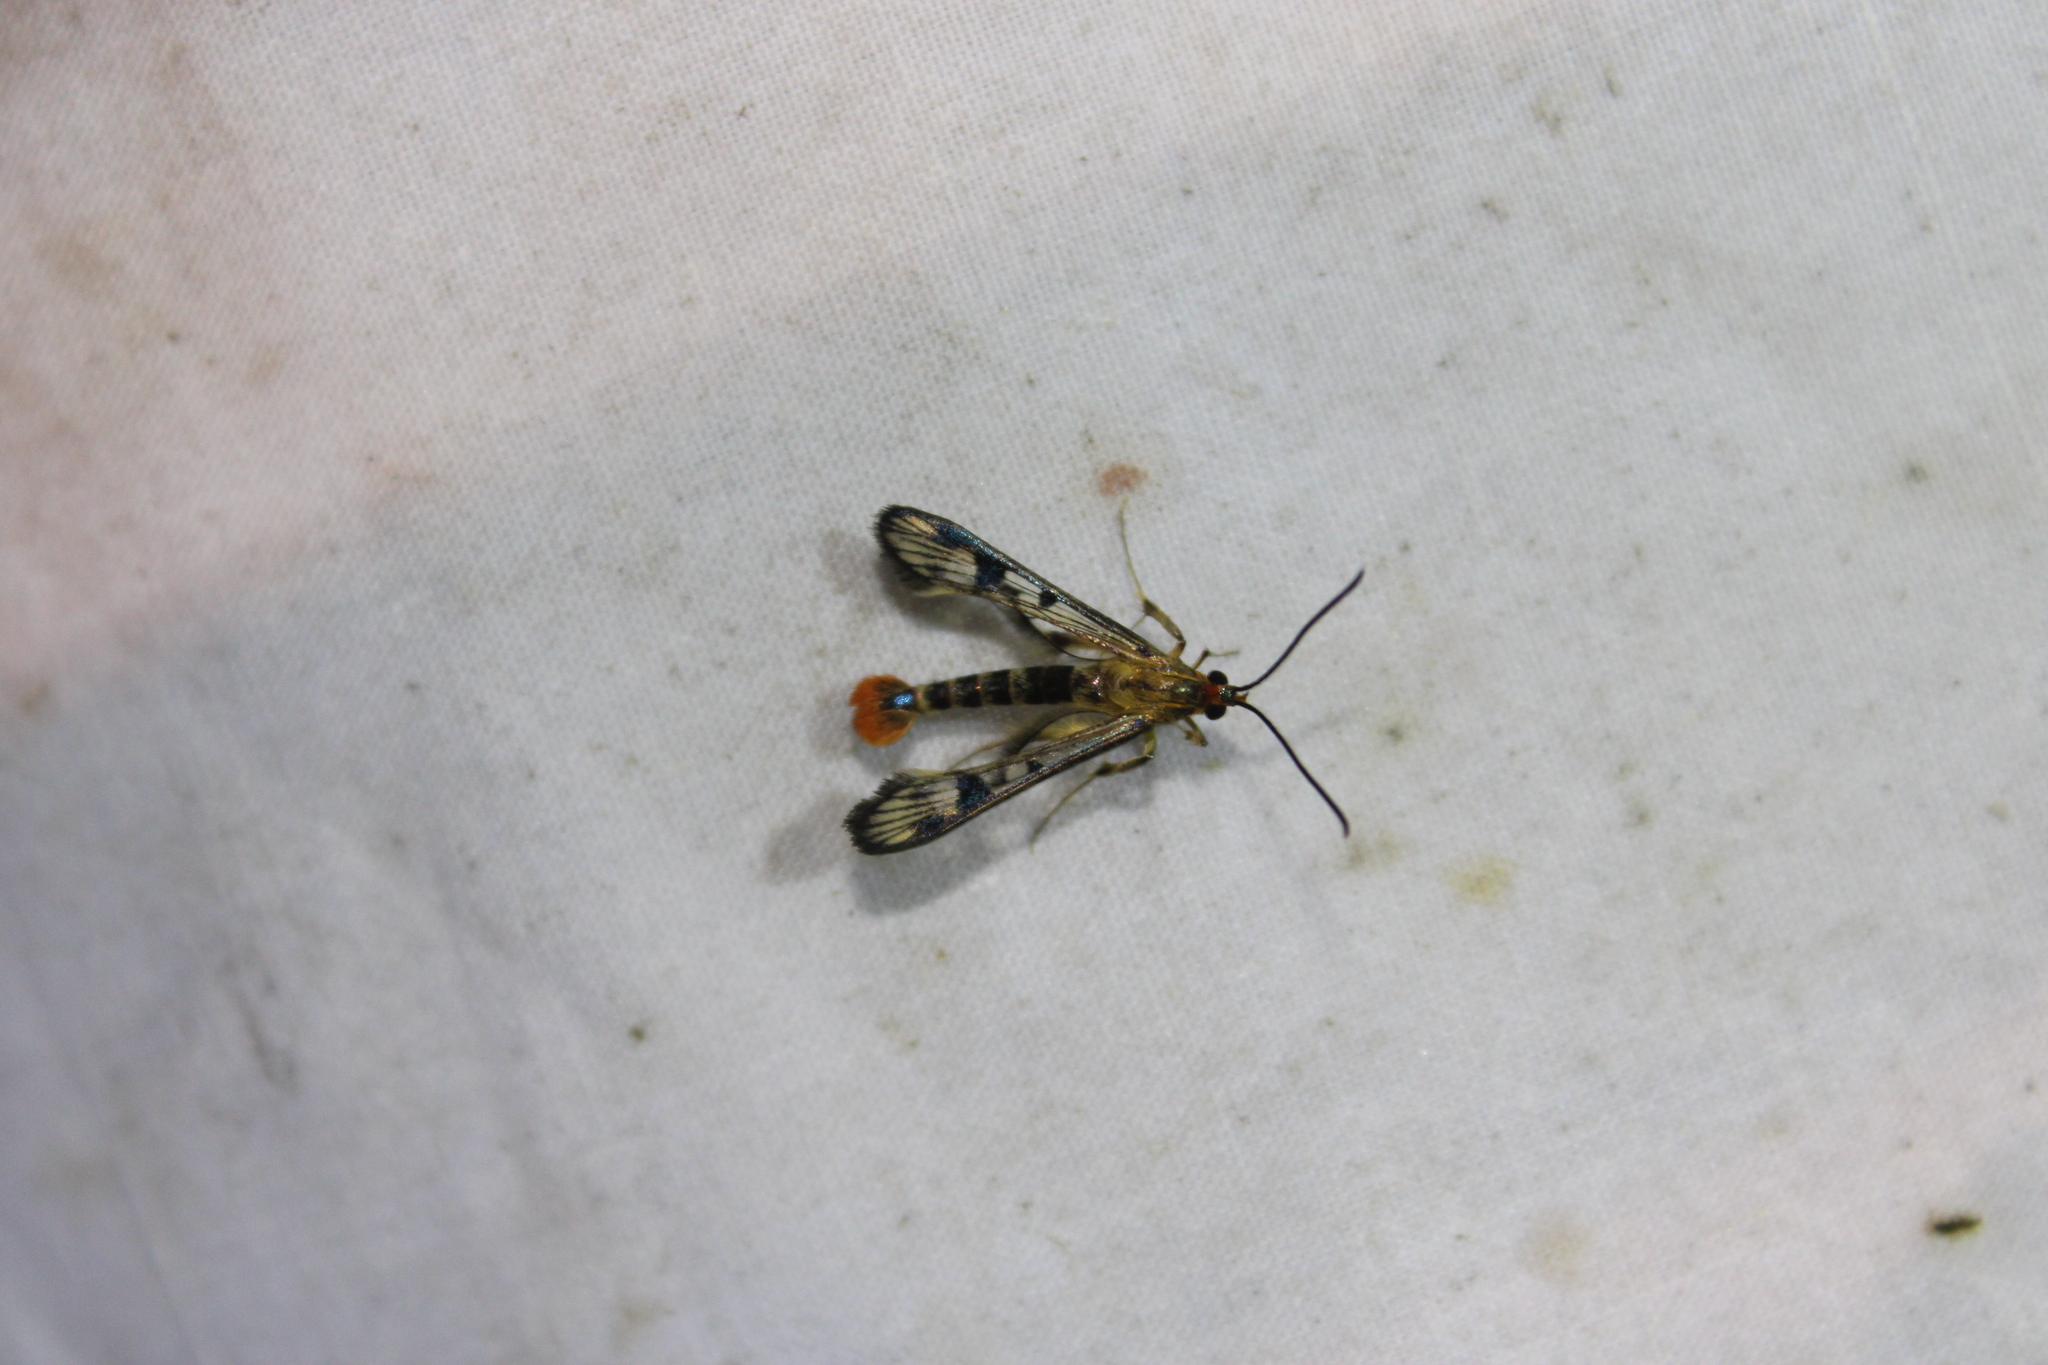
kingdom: Animalia
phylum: Arthropoda
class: Insecta
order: Lepidoptera
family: Sesiidae
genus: Synanthedon
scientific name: Synanthedon acerni
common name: Maple callus borer moth
